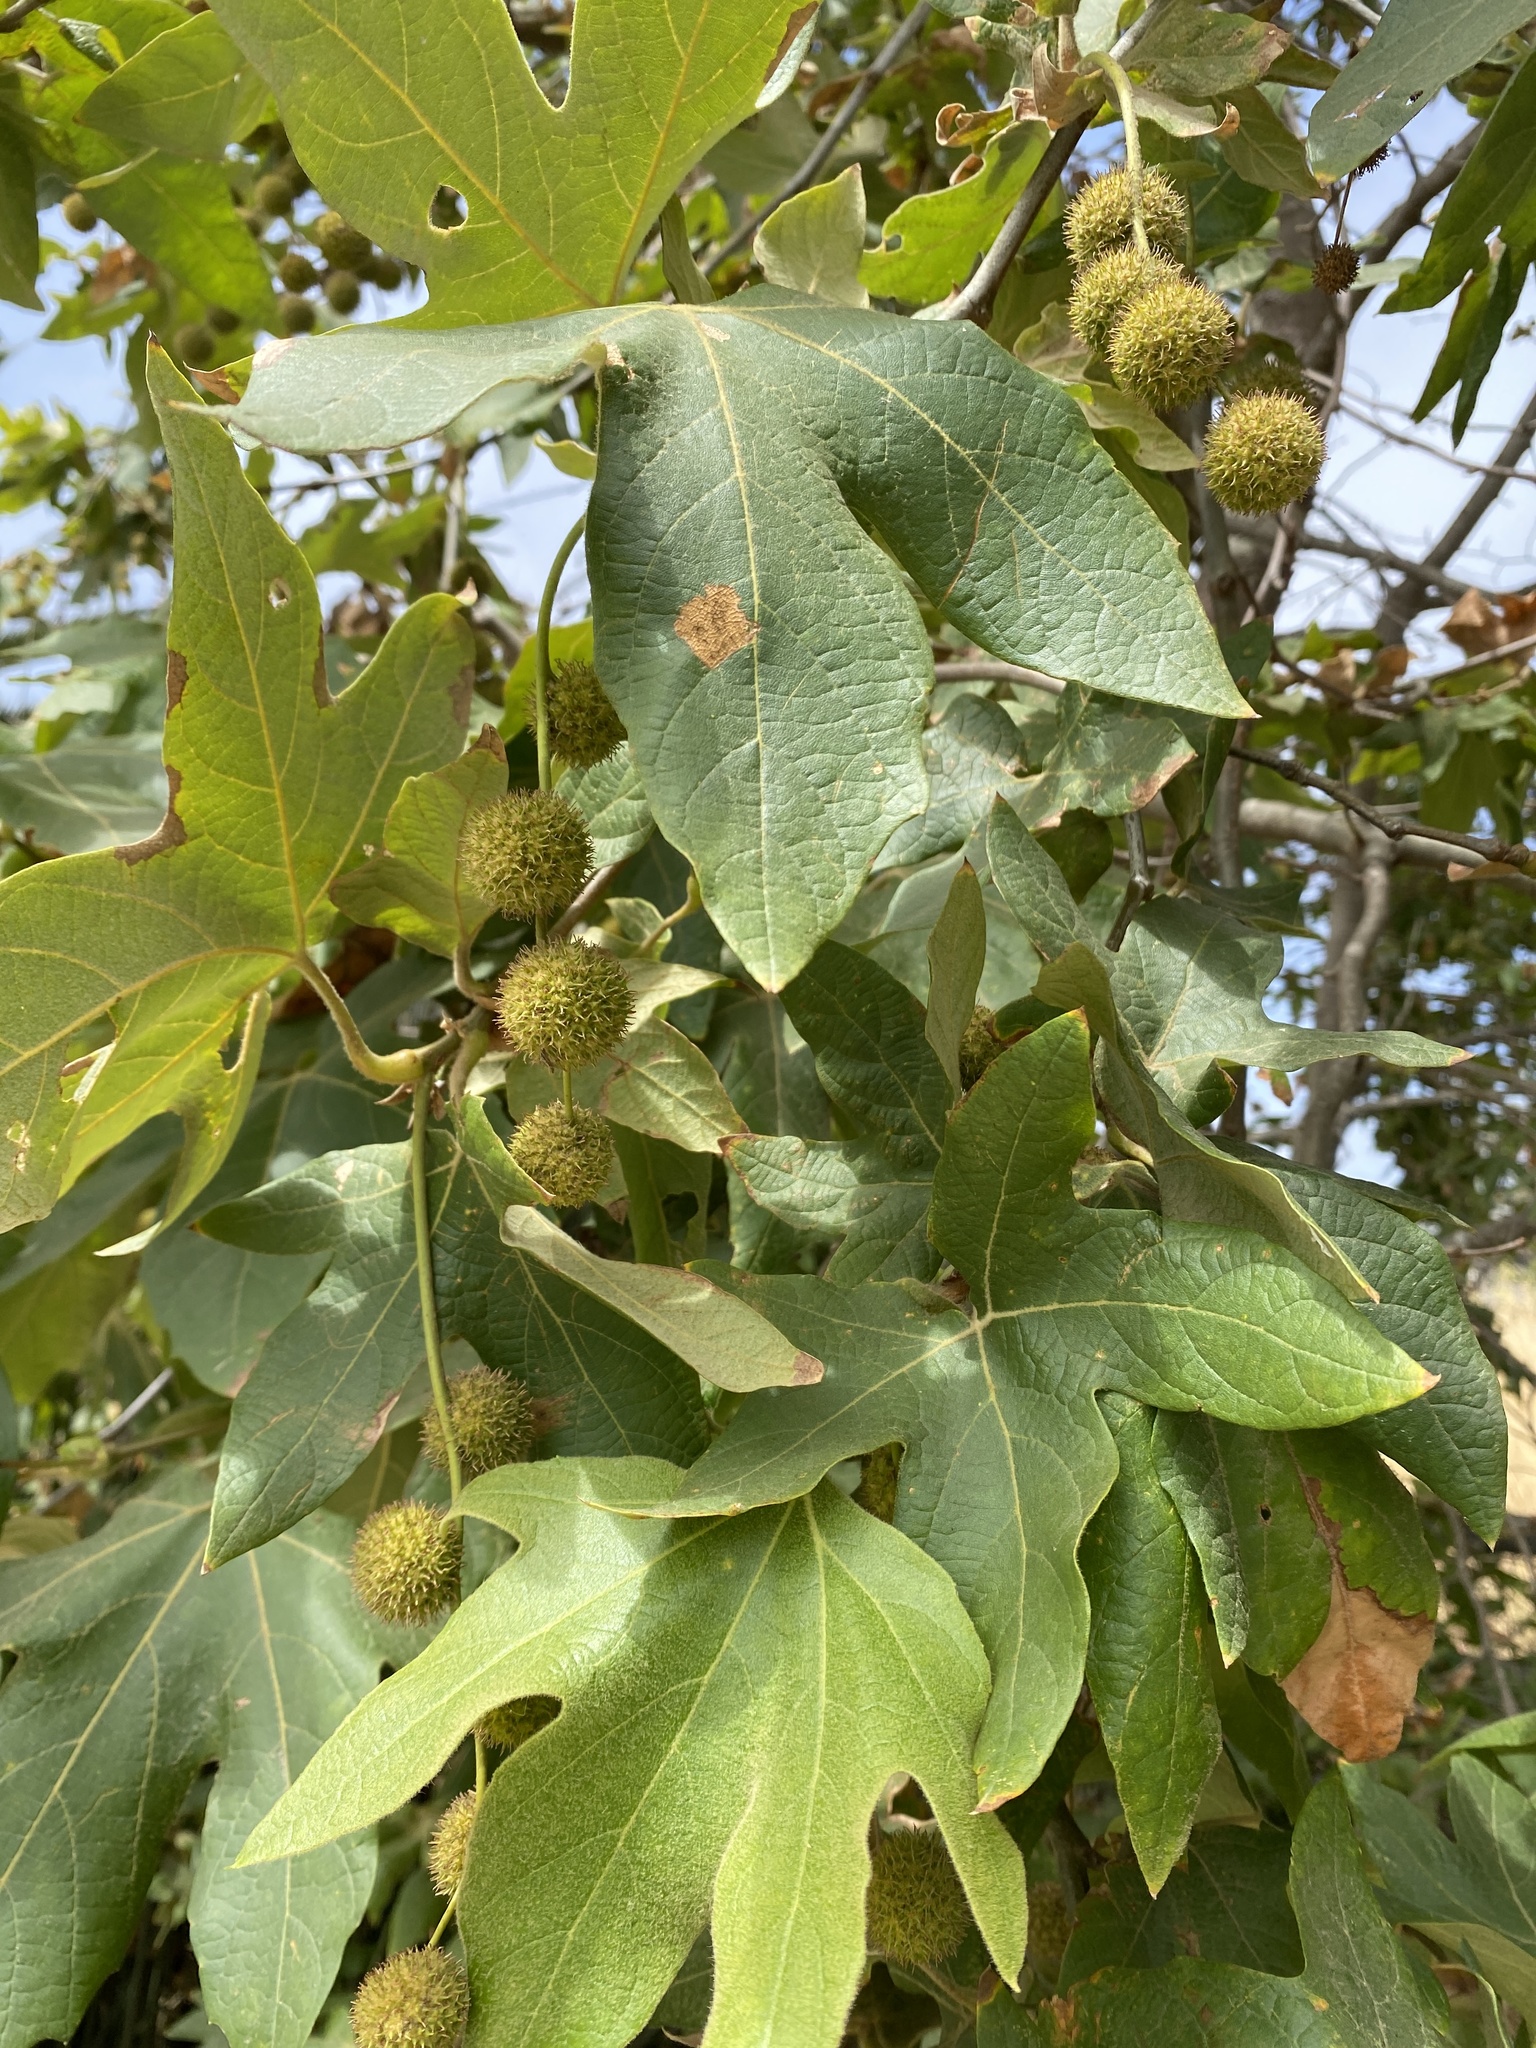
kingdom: Plantae
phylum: Tracheophyta
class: Magnoliopsida
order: Proteales
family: Platanaceae
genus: Platanus
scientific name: Platanus racemosa
